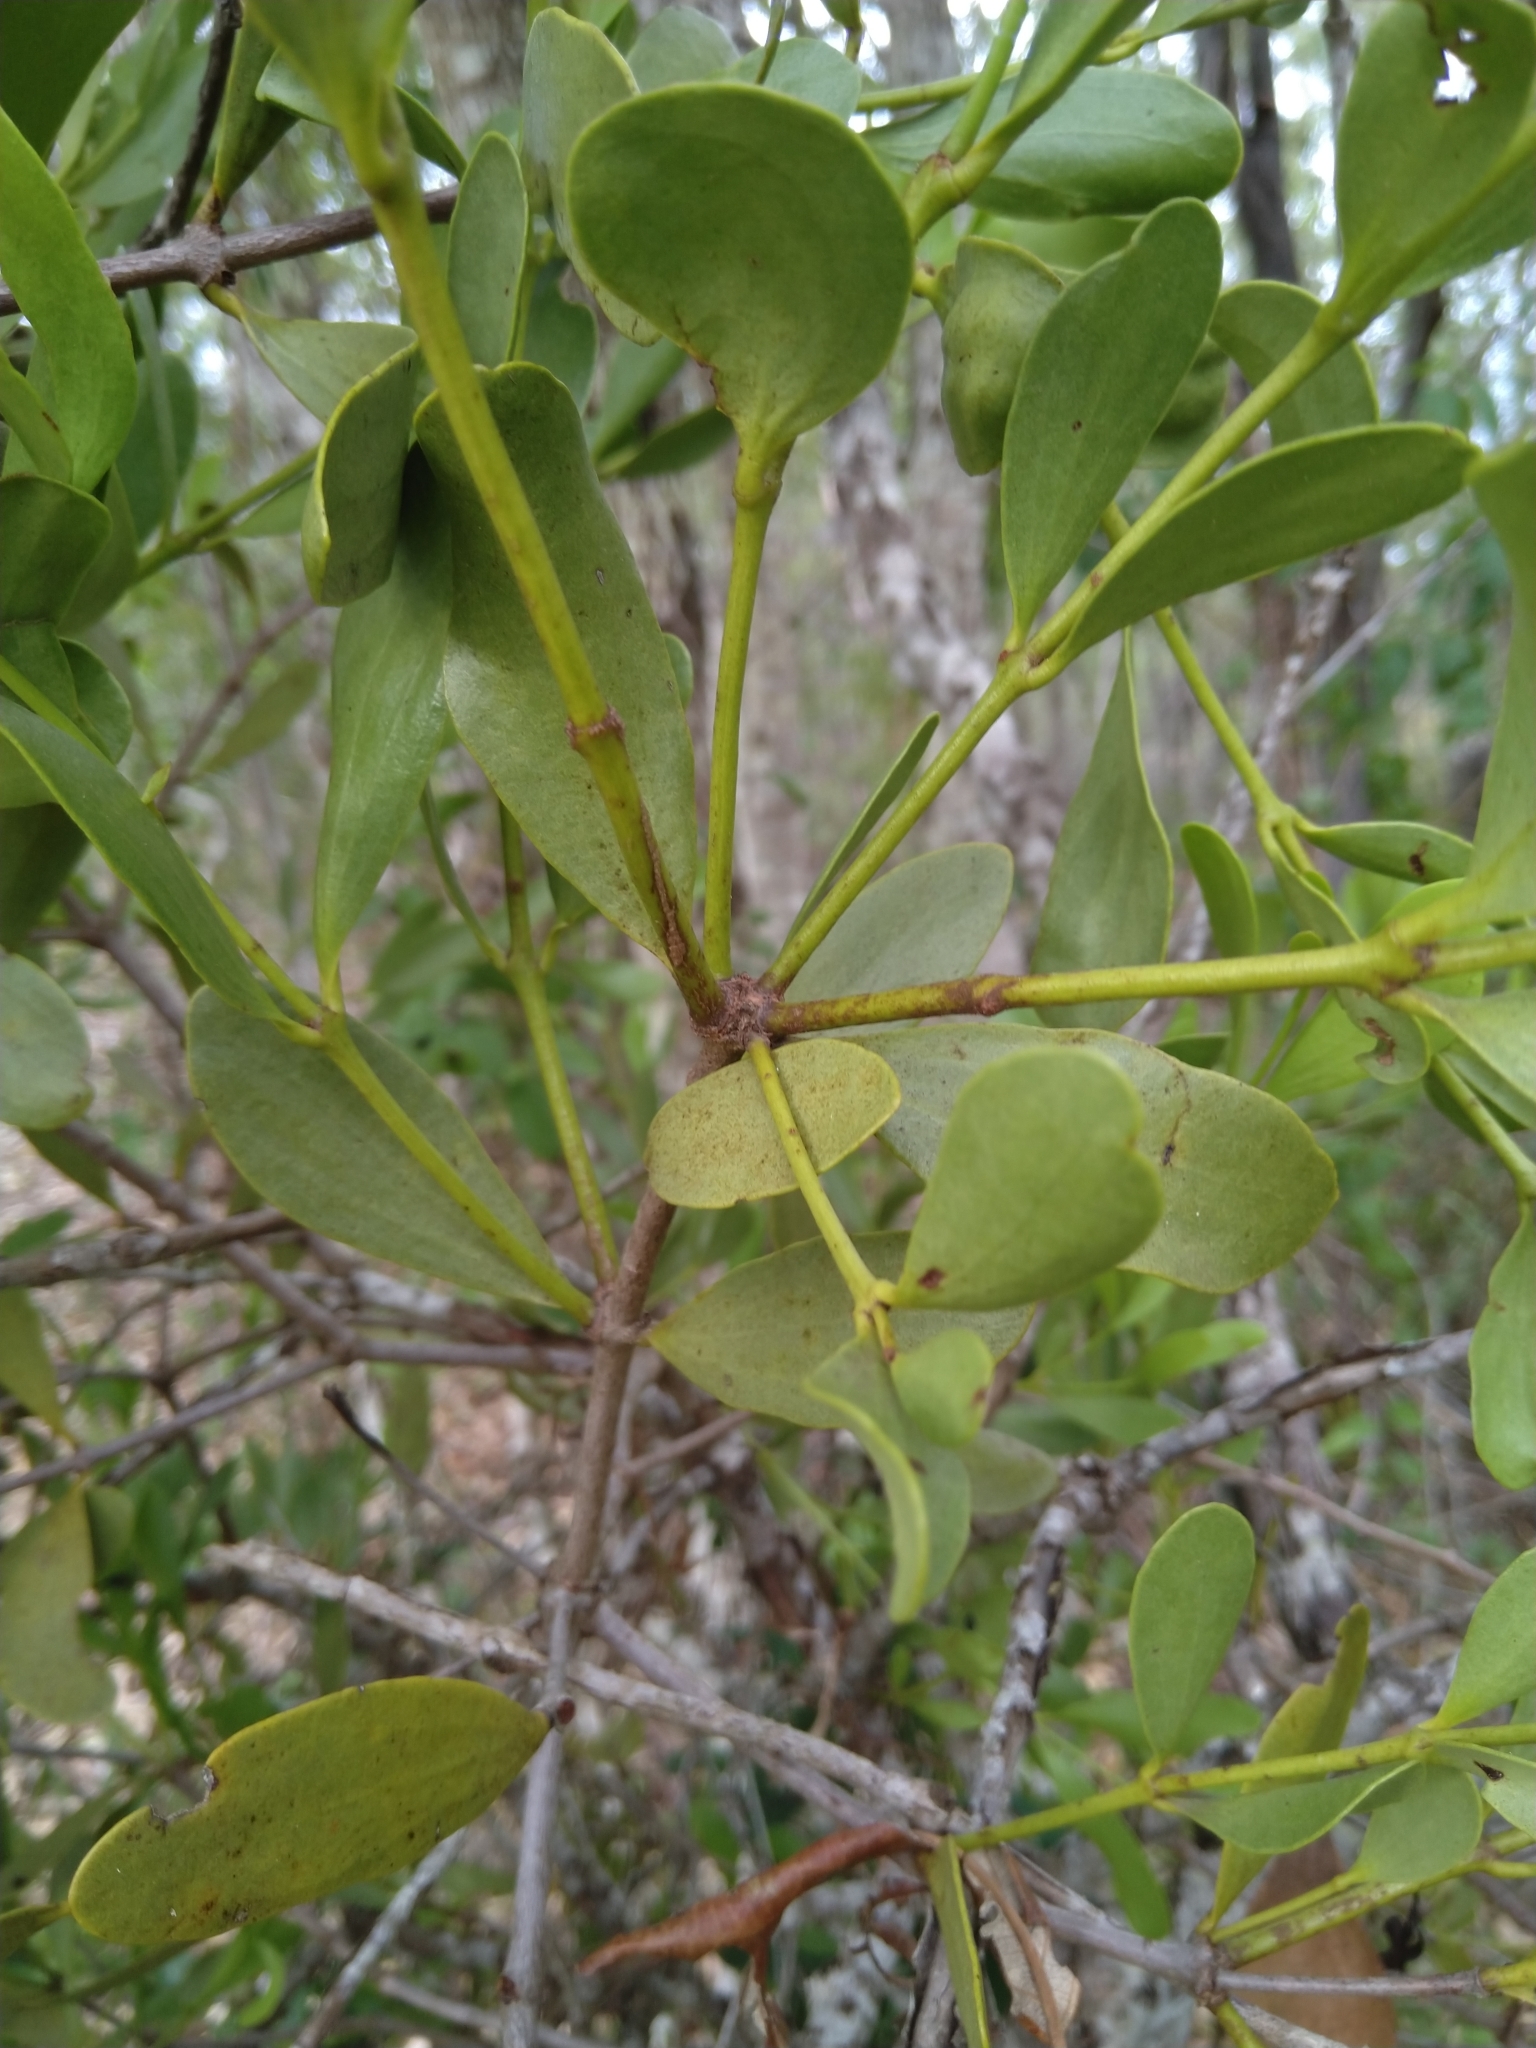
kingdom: Plantae
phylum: Tracheophyta
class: Magnoliopsida
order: Santalales
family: Loranthaceae
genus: Amyema
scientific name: Amyema conspicua
